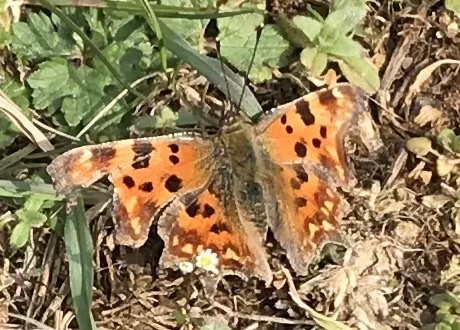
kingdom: Animalia
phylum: Arthropoda
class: Insecta
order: Lepidoptera
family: Nymphalidae
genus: Polygonia
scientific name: Polygonia c-album
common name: Comma
